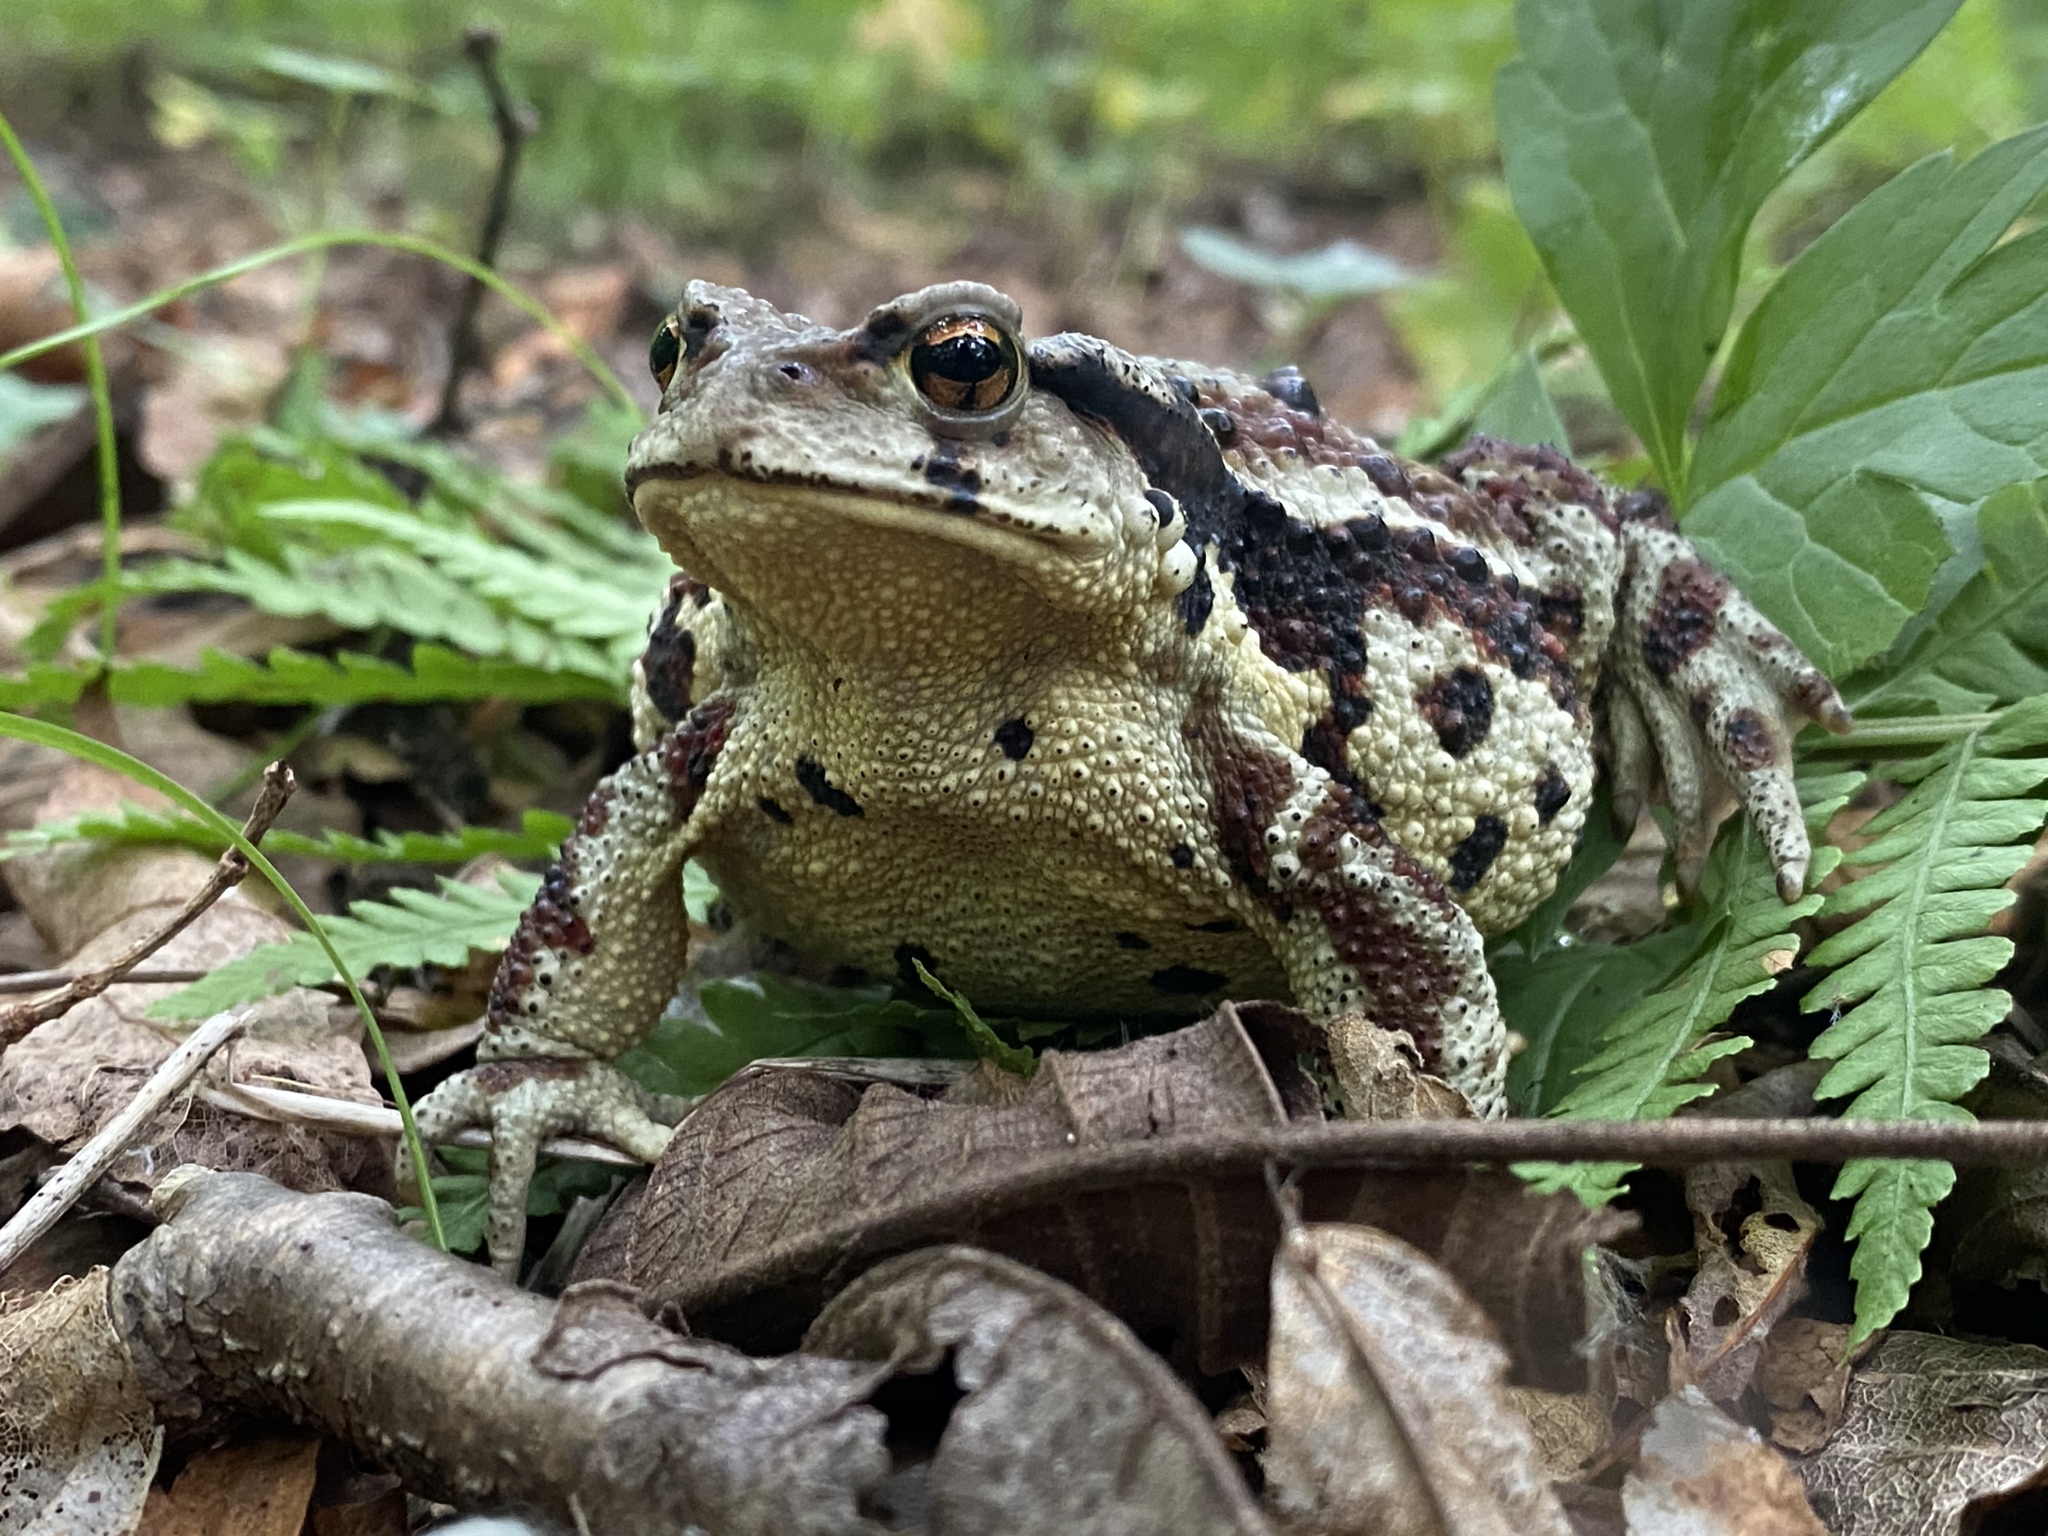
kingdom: Animalia
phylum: Chordata
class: Amphibia
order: Anura
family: Bufonidae
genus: Bufo
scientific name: Bufo gargarizans
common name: Asiatic toad
